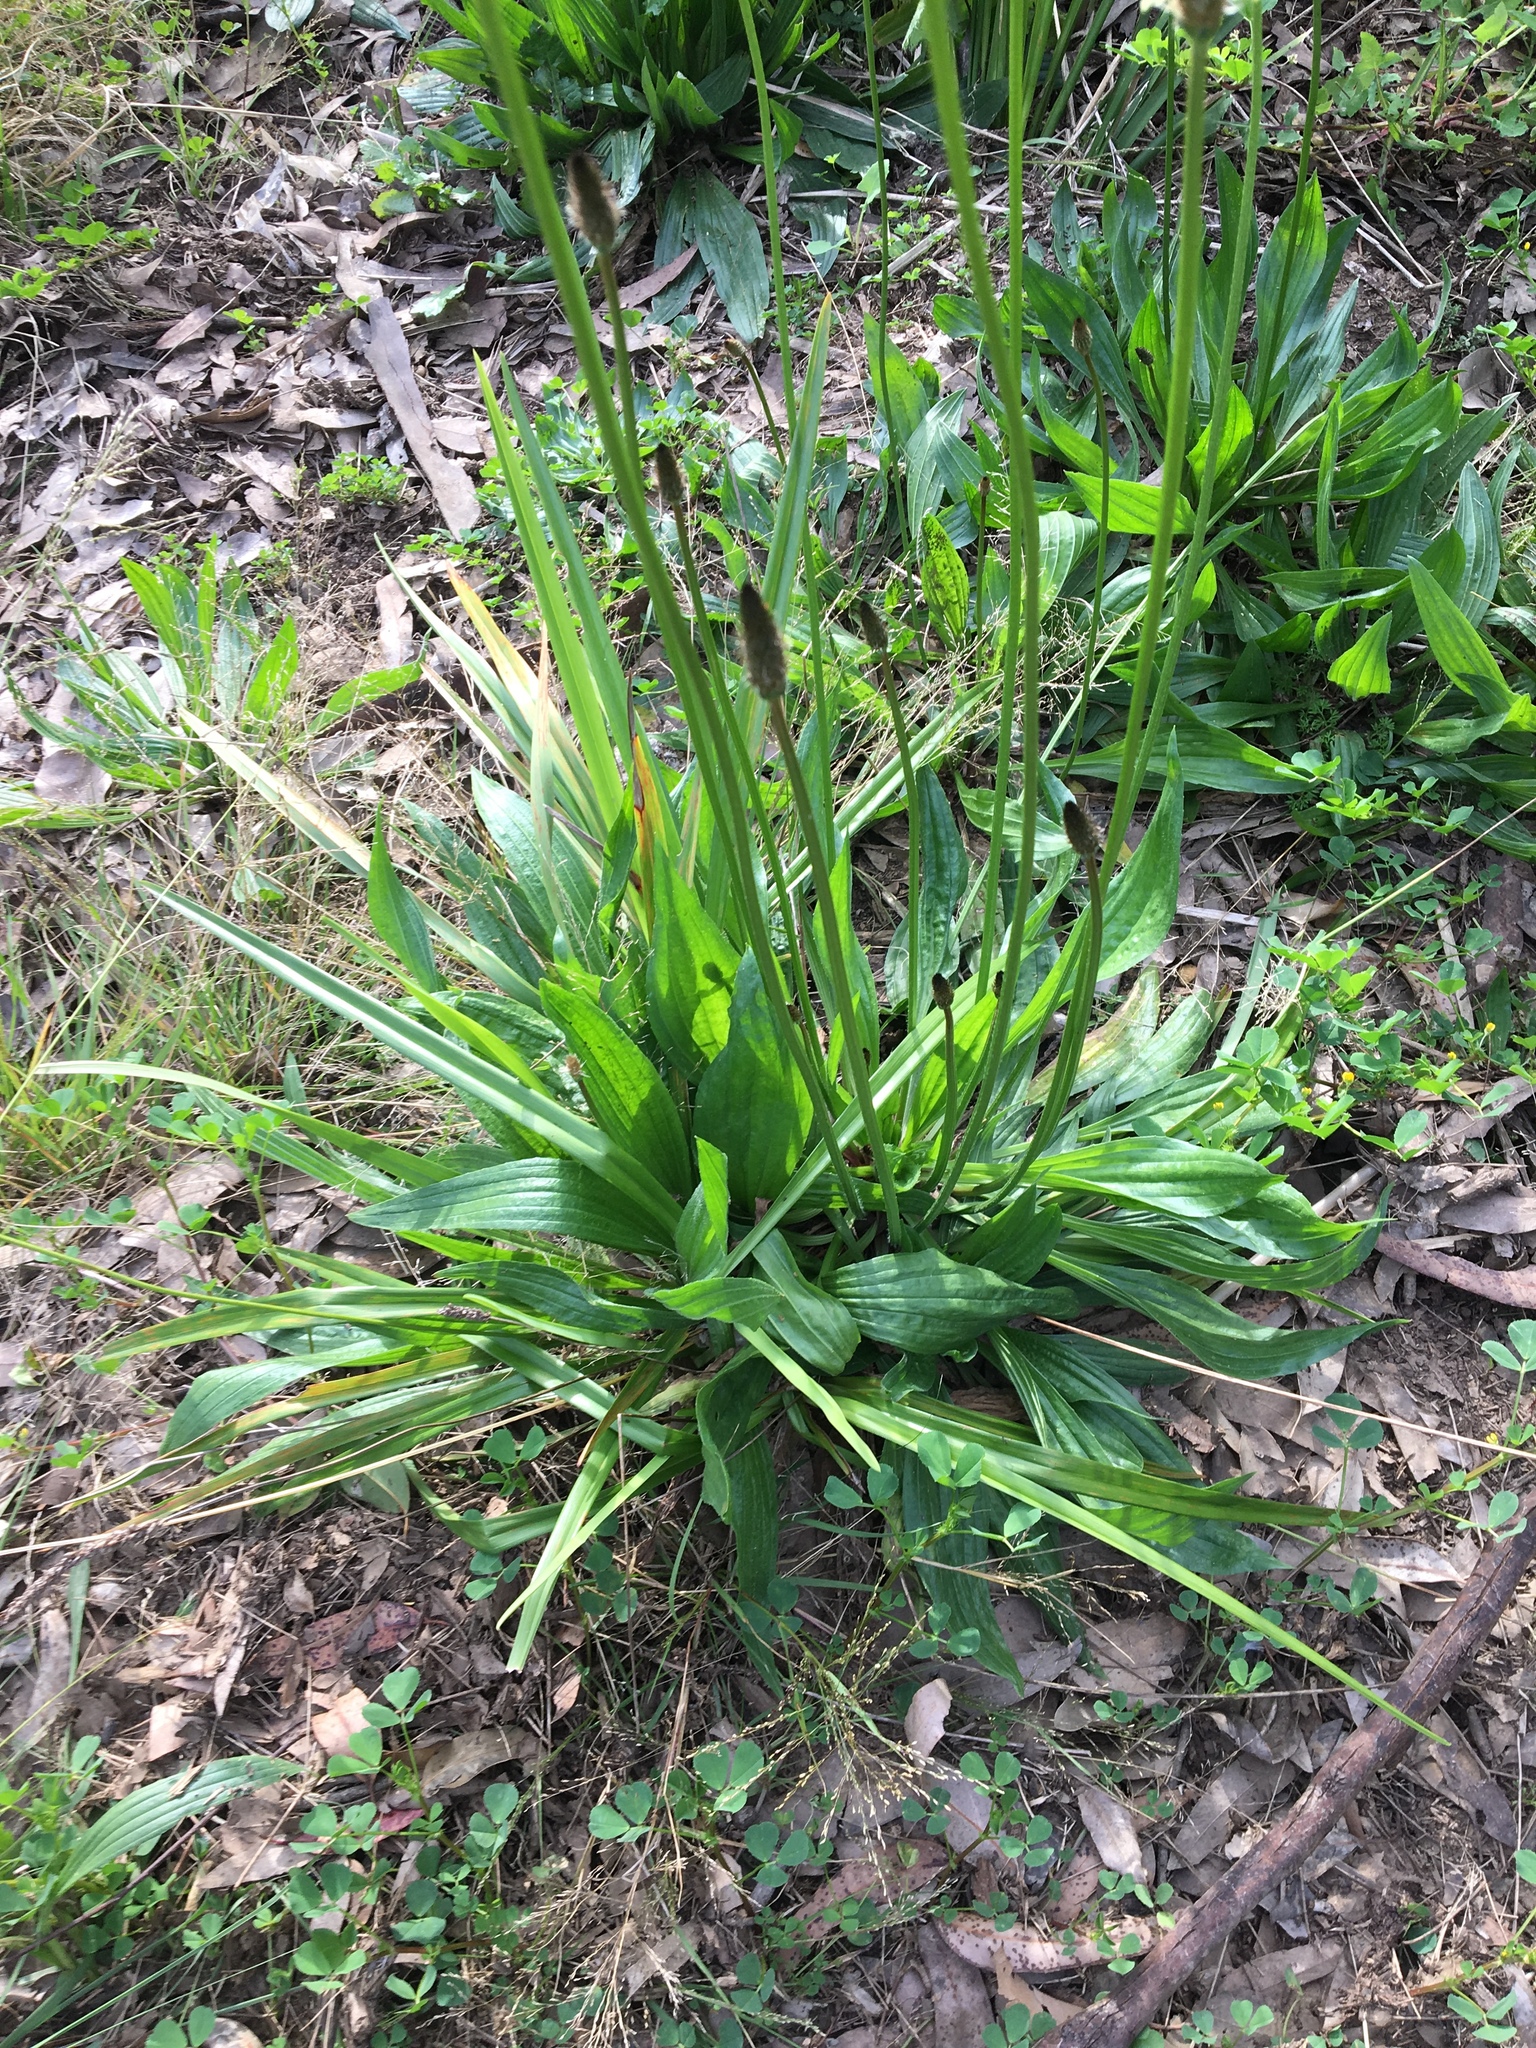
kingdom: Plantae
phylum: Tracheophyta
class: Magnoliopsida
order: Lamiales
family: Plantaginaceae
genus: Plantago
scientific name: Plantago lanceolata
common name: Ribwort plantain
